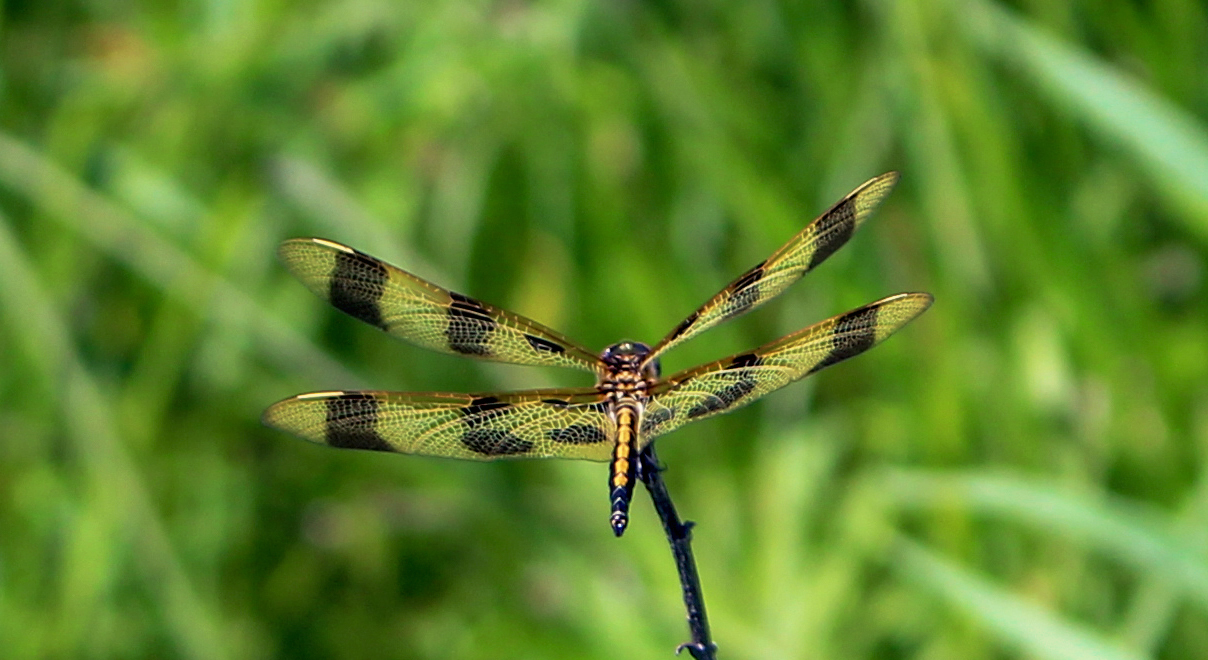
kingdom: Animalia
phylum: Arthropoda
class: Insecta
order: Odonata
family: Libellulidae
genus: Celithemis
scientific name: Celithemis eponina
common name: Halloween pennant
